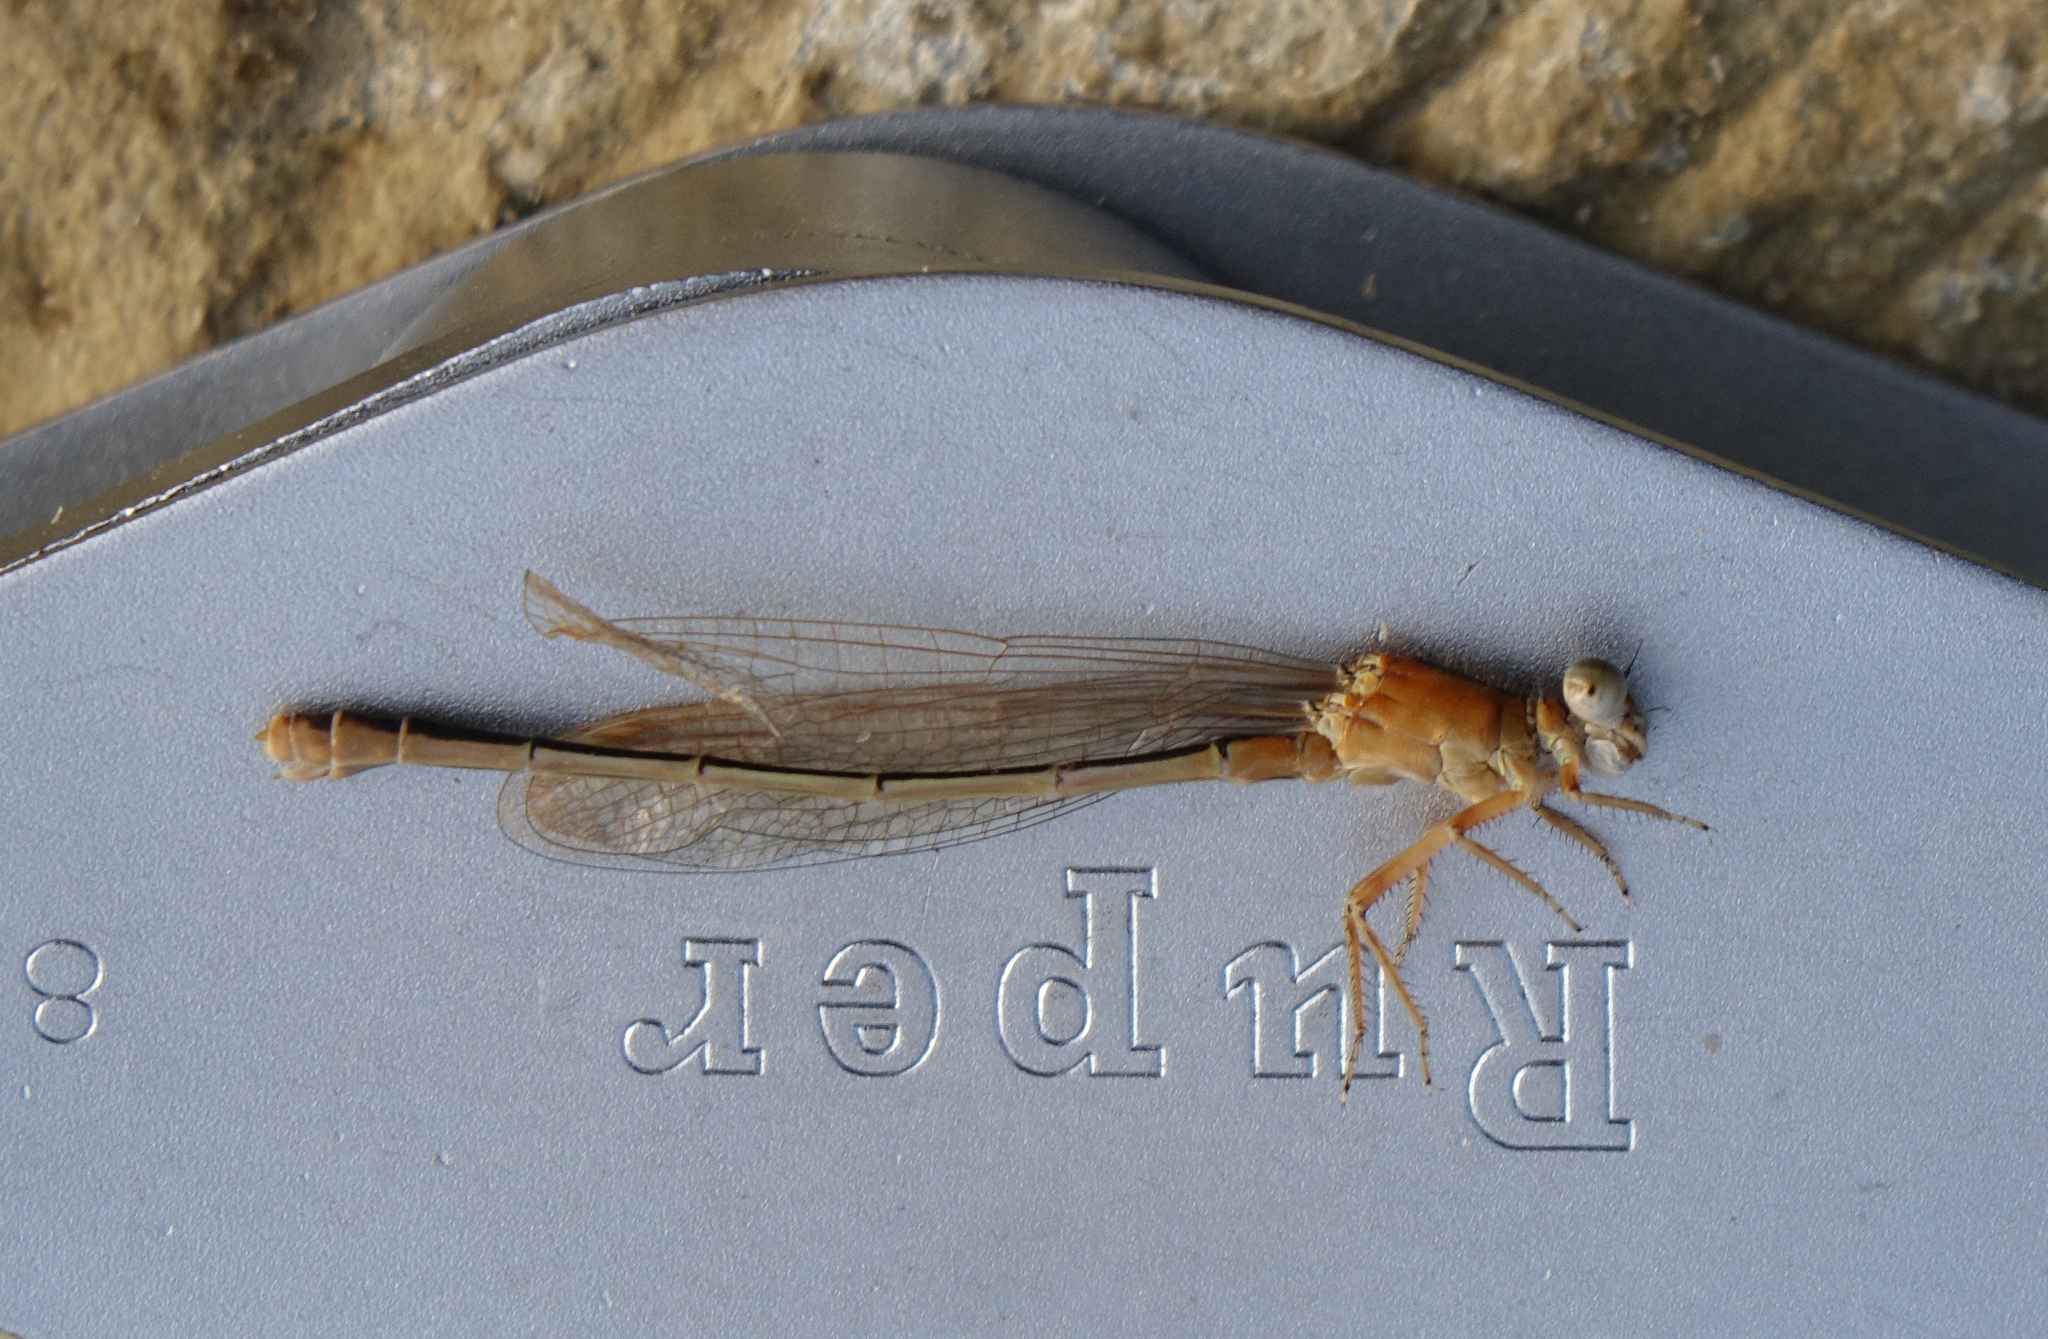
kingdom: Animalia
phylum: Arthropoda
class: Insecta
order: Odonata
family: Coenagrionidae
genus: Ischnura
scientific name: Ischnura fountaineae
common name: Oasis bluetail
